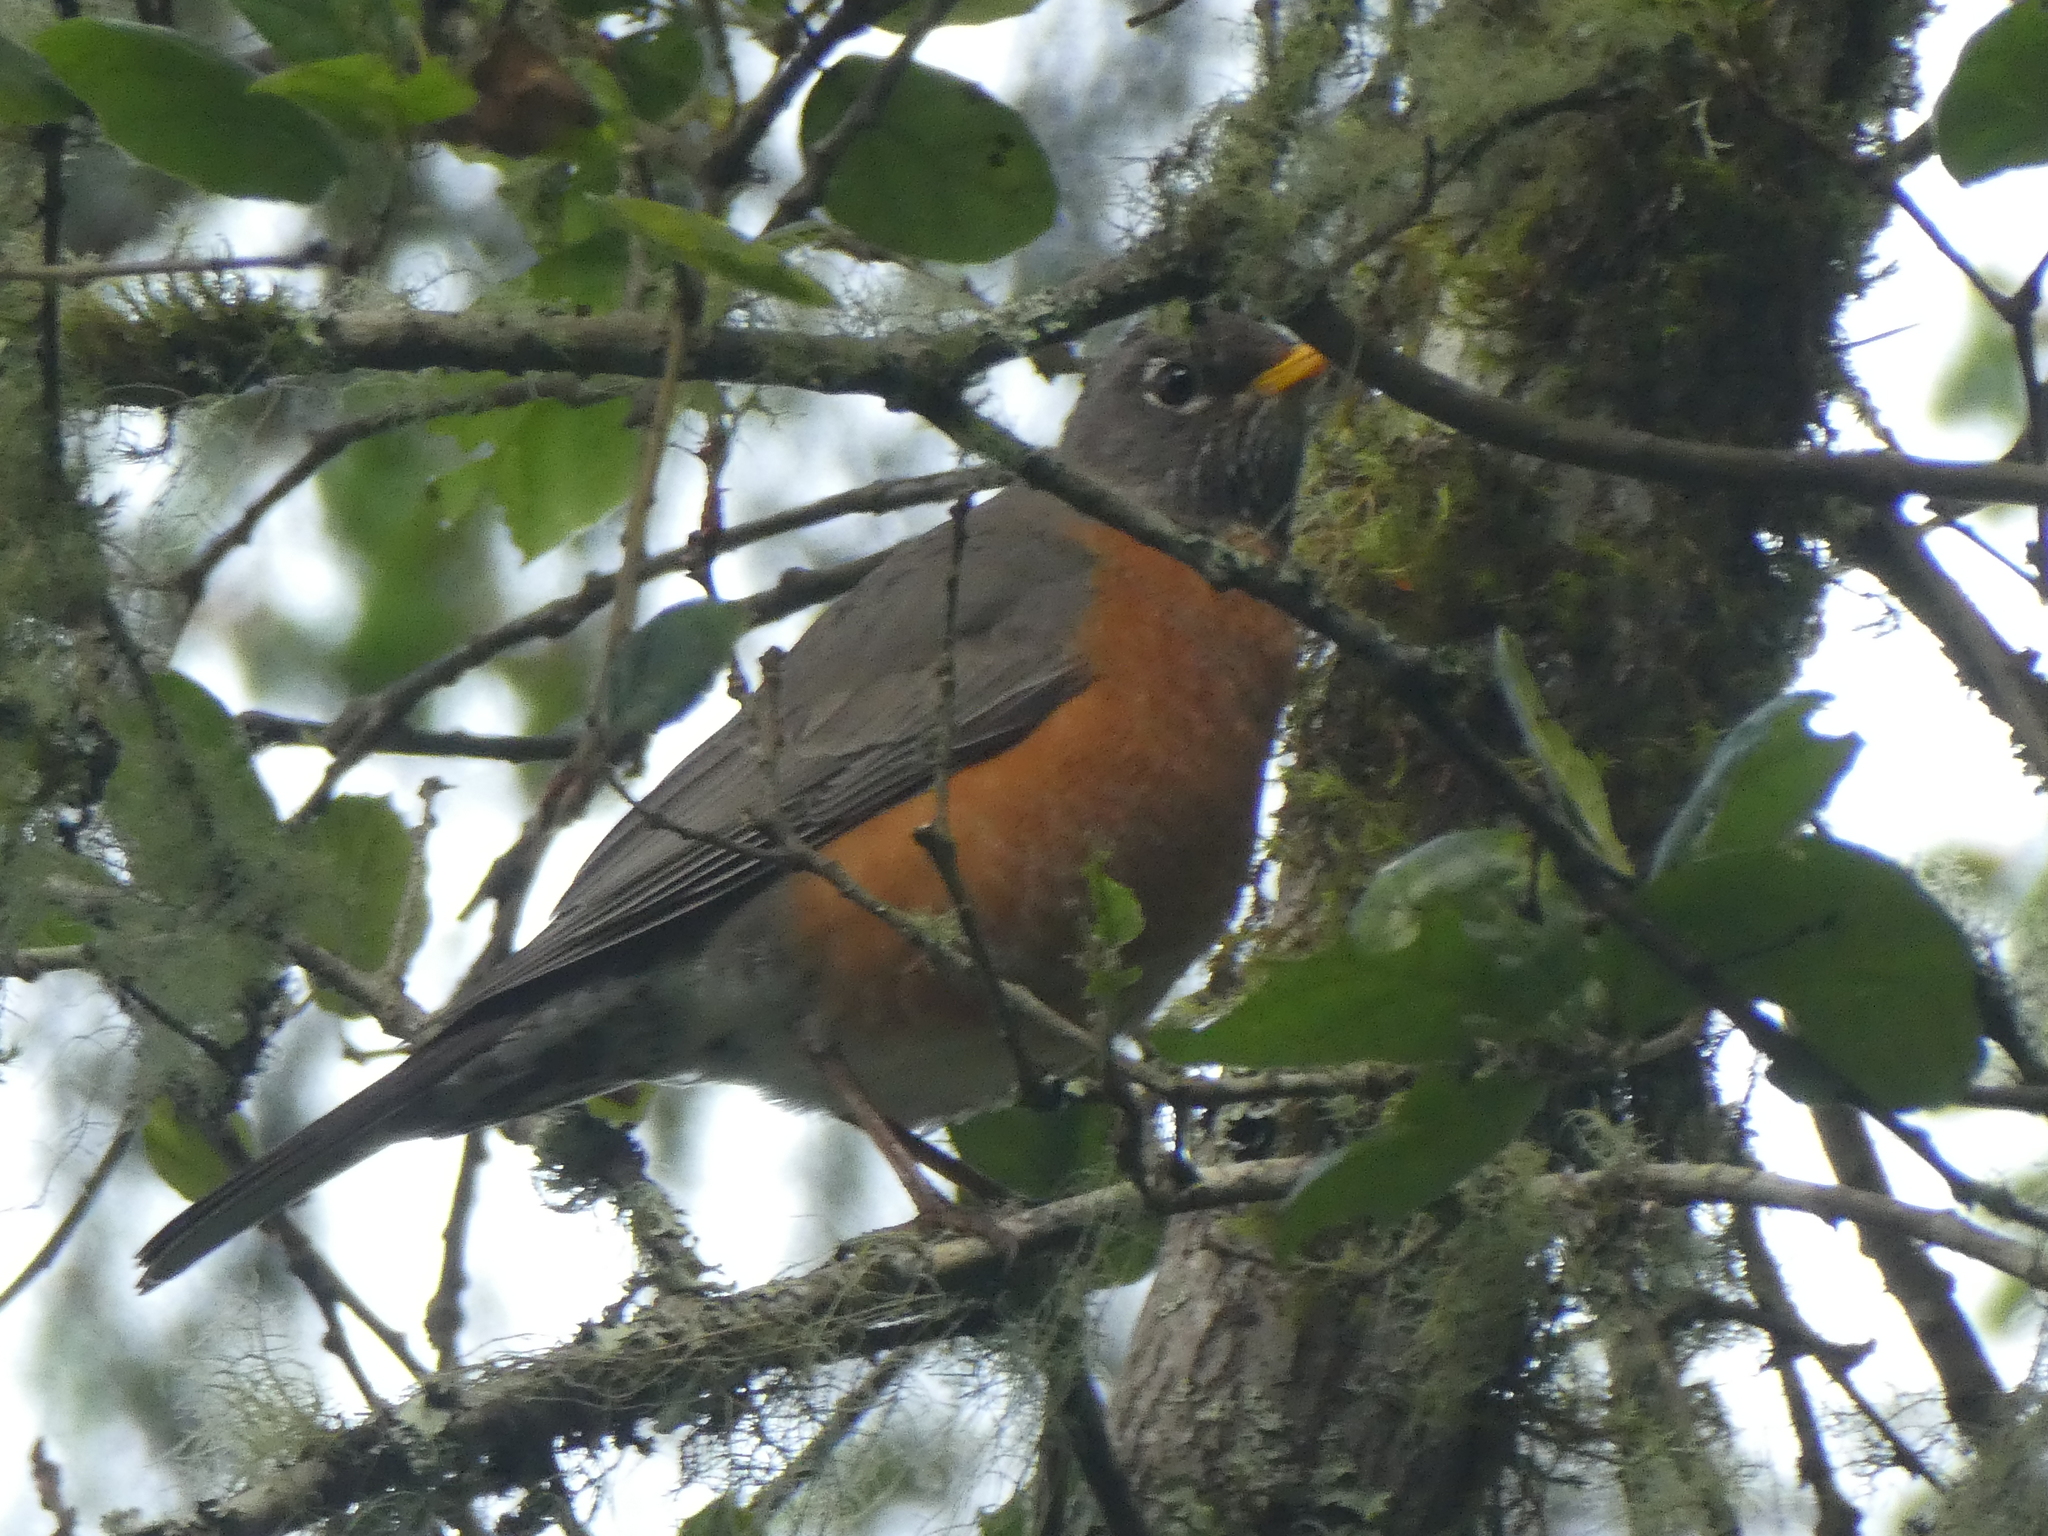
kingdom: Animalia
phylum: Chordata
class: Aves
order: Passeriformes
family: Turdidae
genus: Turdus
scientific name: Turdus migratorius
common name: American robin
